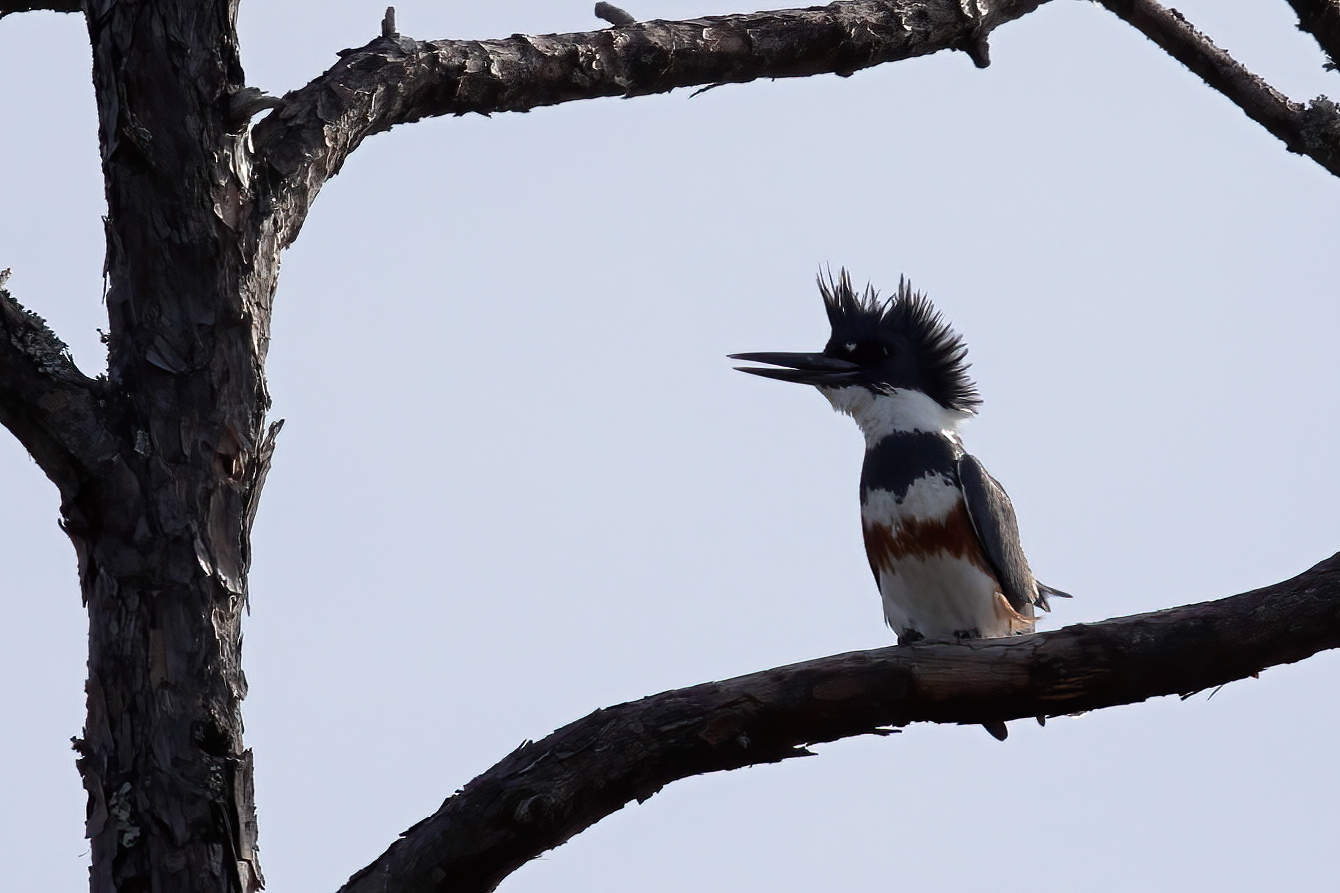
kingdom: Animalia
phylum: Chordata
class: Aves
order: Coraciiformes
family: Alcedinidae
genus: Megaceryle
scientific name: Megaceryle alcyon
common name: Belted kingfisher
